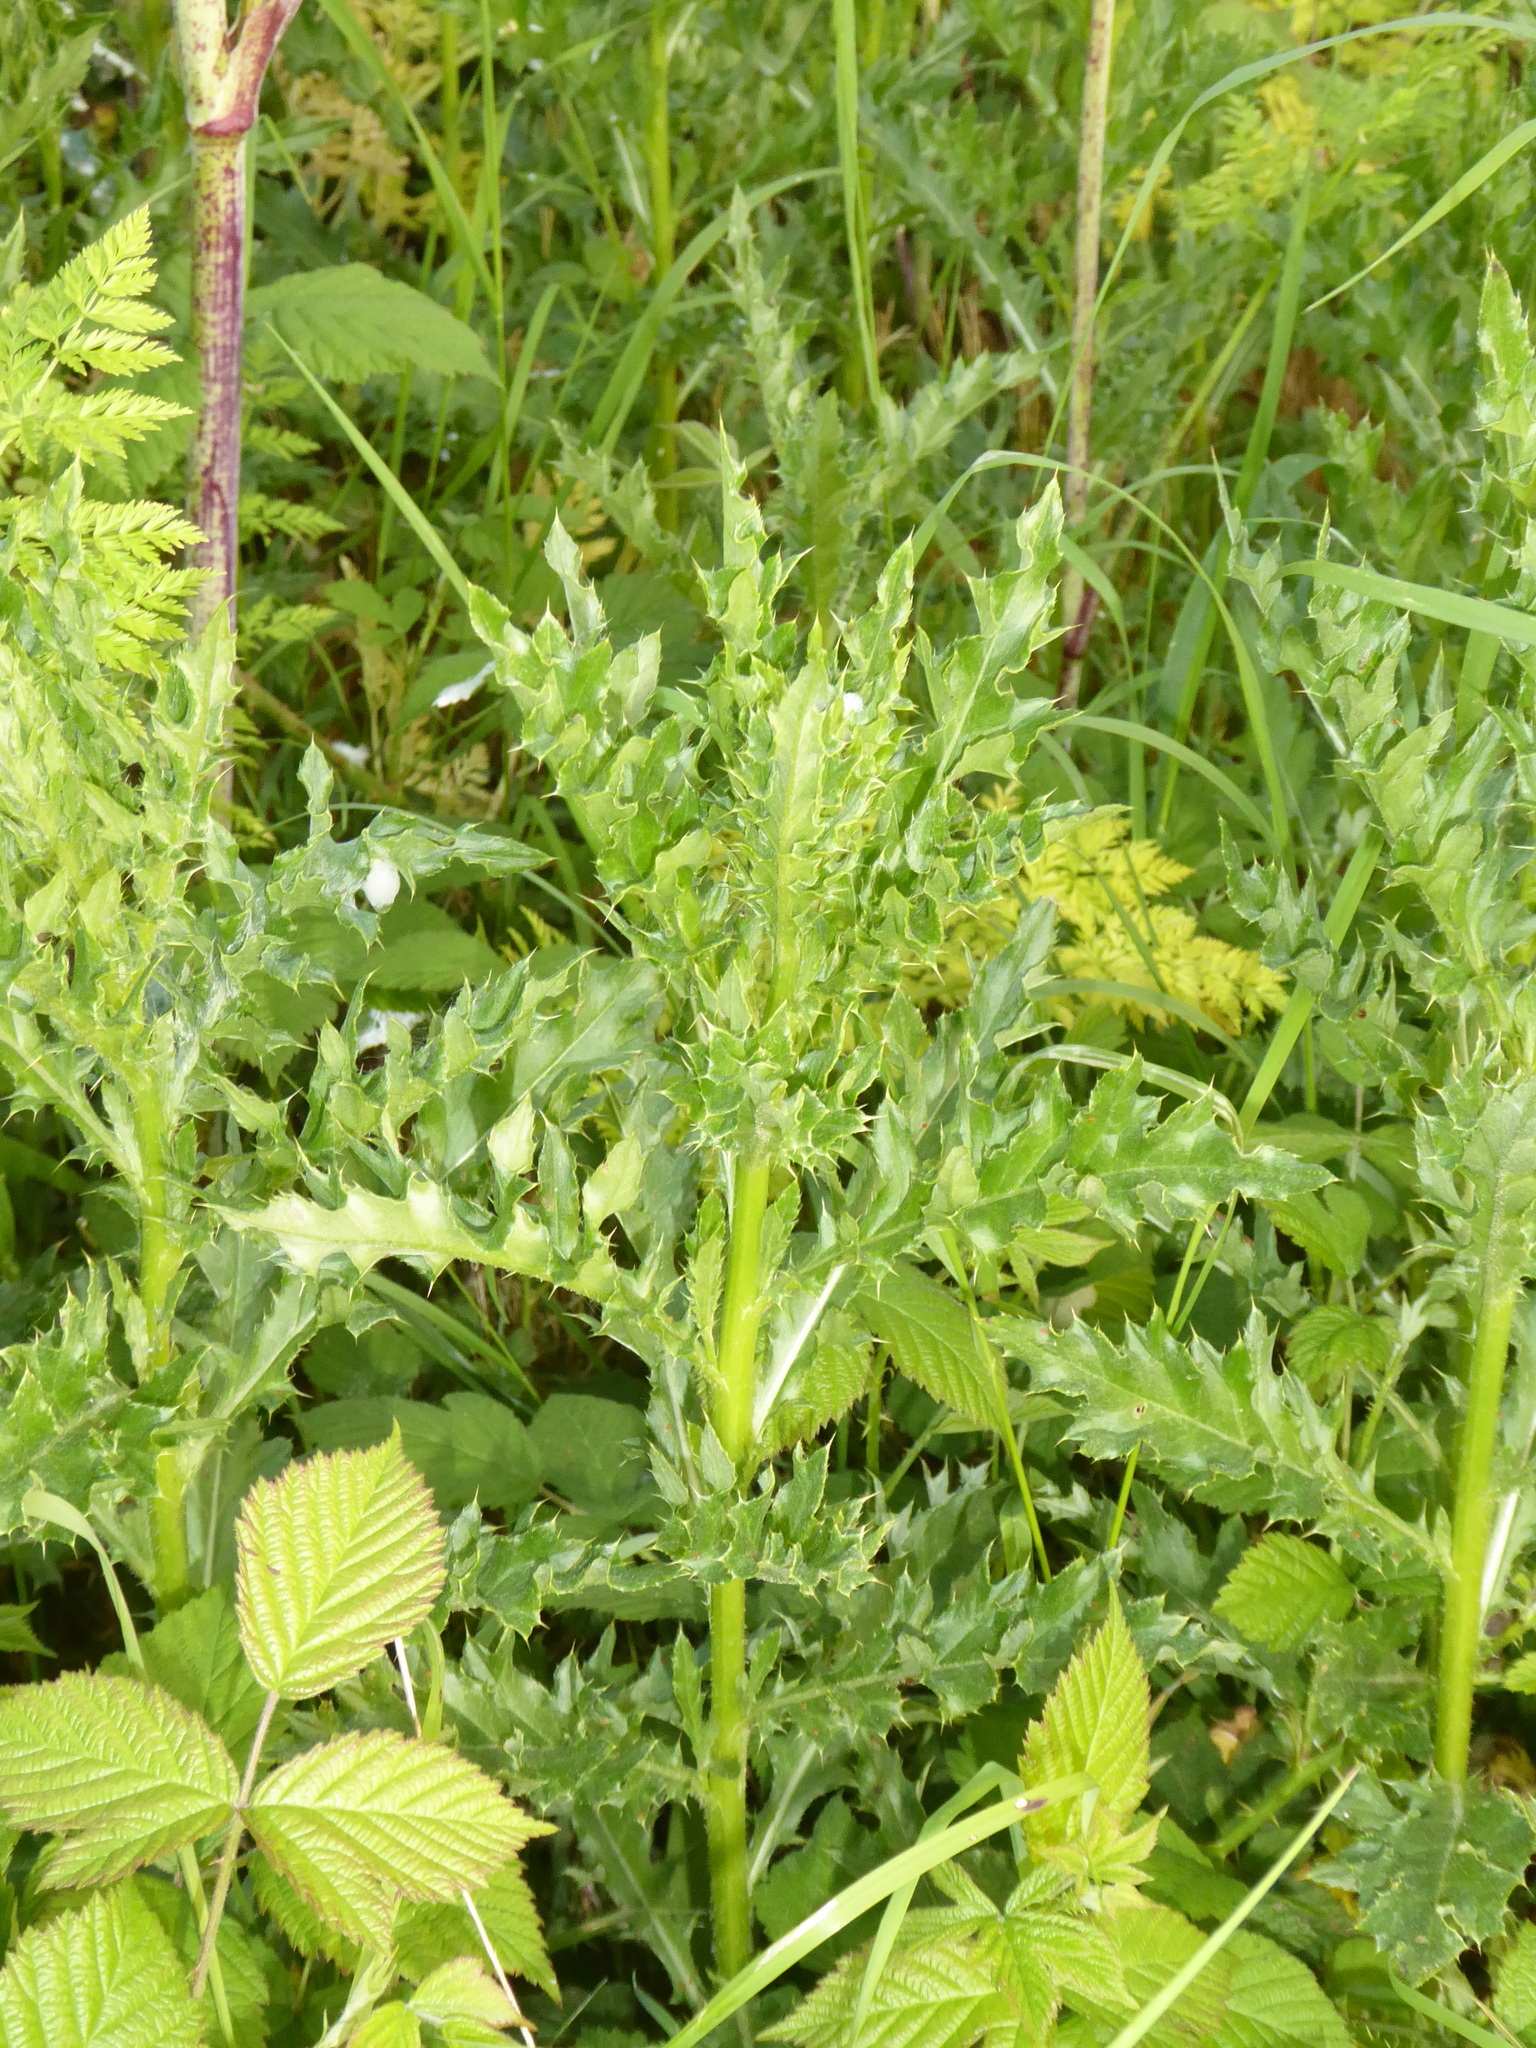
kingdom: Plantae
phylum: Tracheophyta
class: Magnoliopsida
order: Asterales
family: Asteraceae
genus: Cirsium
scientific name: Cirsium arvense
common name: Creeping thistle
